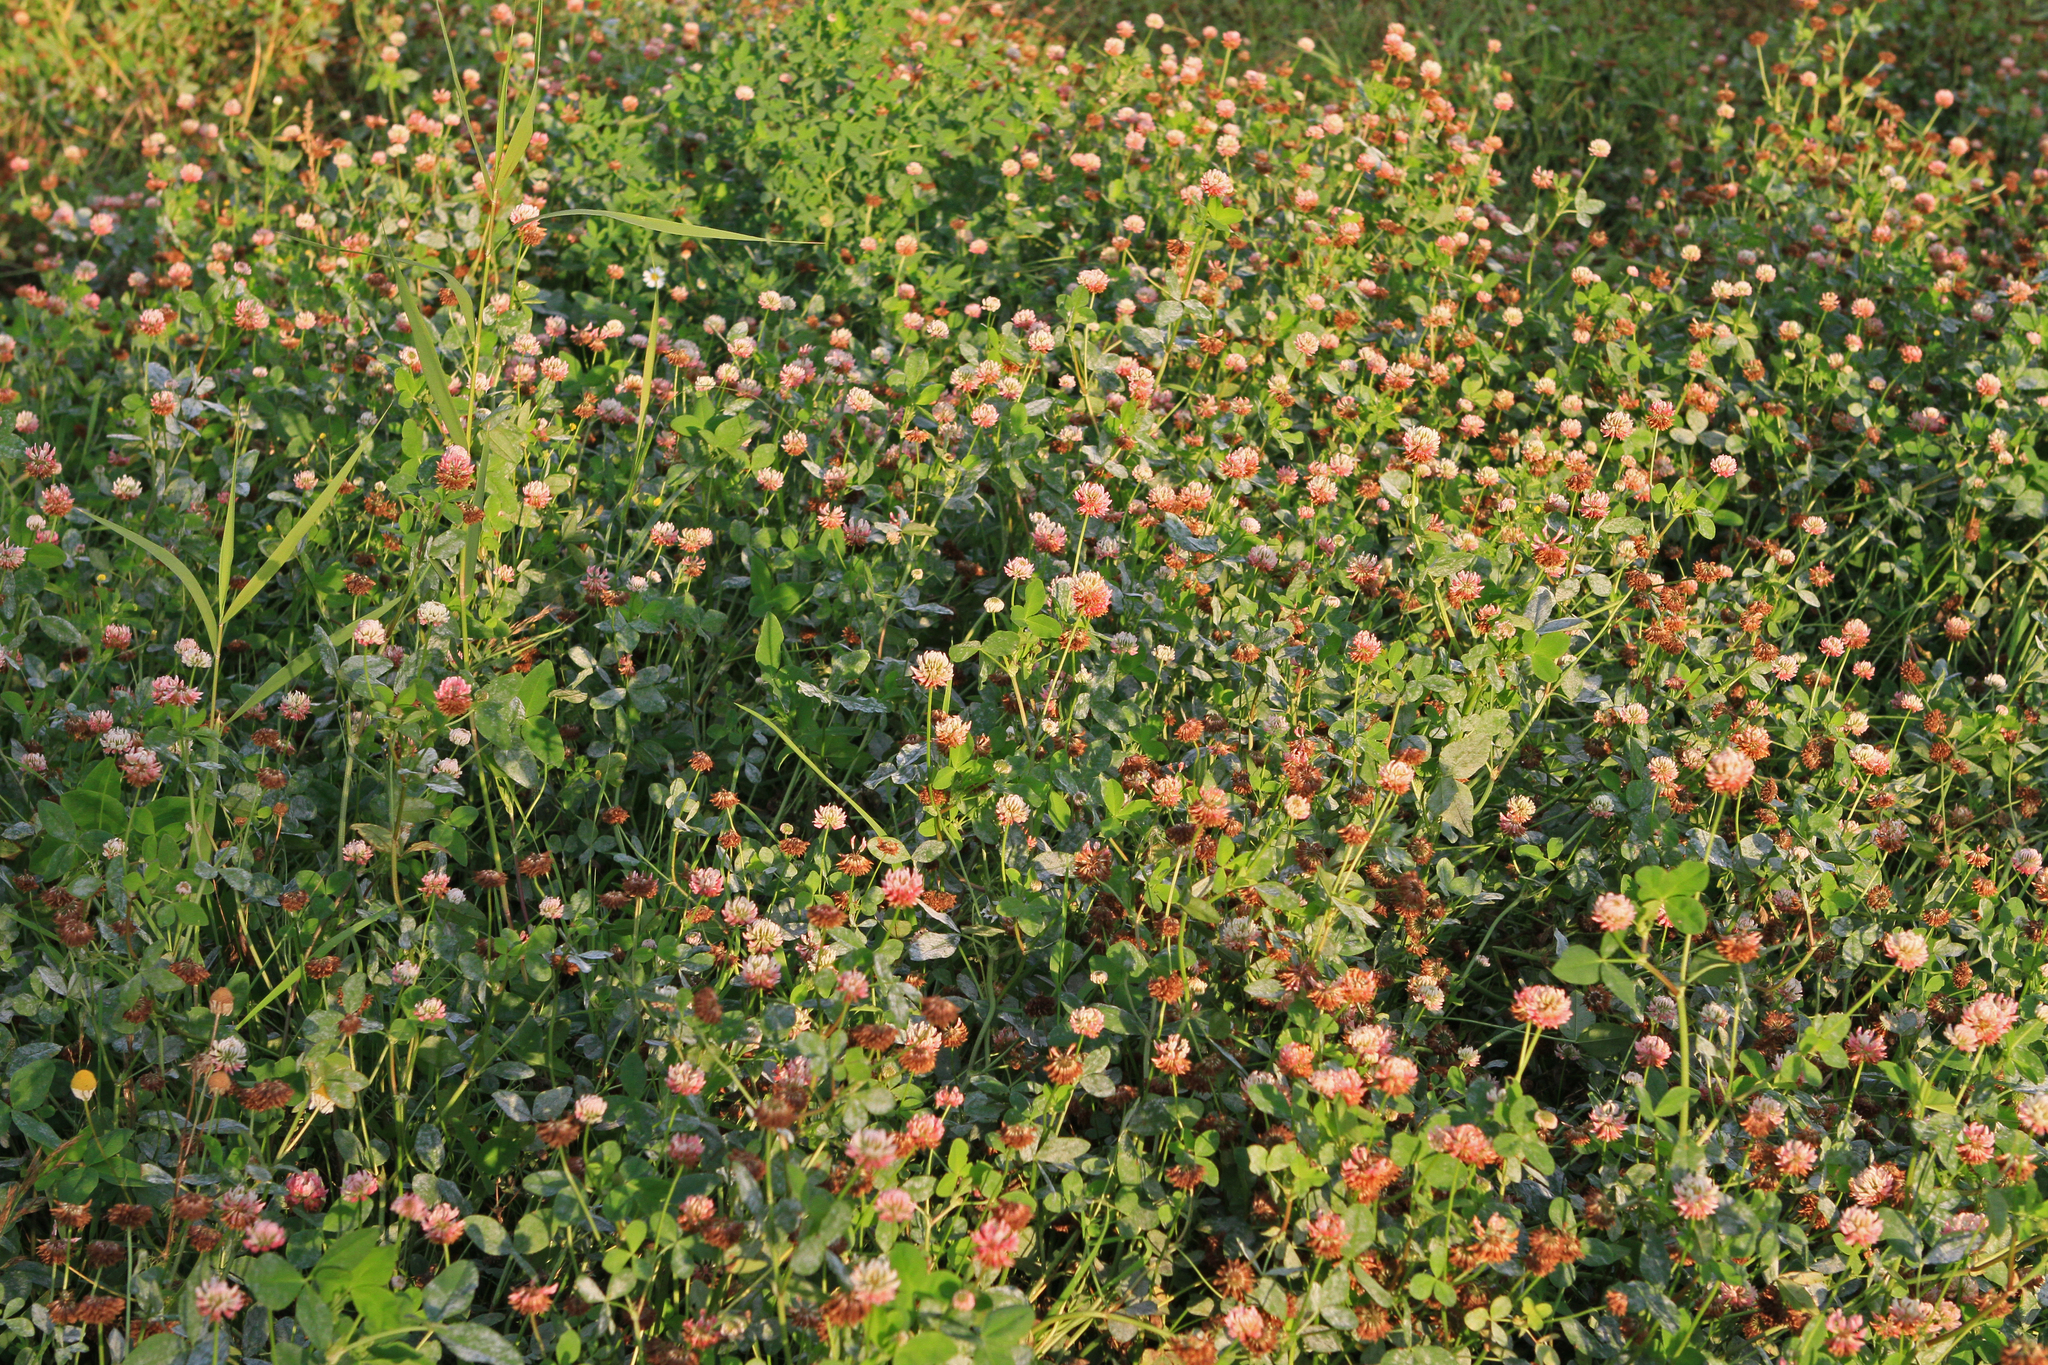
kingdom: Plantae
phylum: Tracheophyta
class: Magnoliopsida
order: Fabales
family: Fabaceae
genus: Trifolium
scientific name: Trifolium hybridum
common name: Alsike clover
